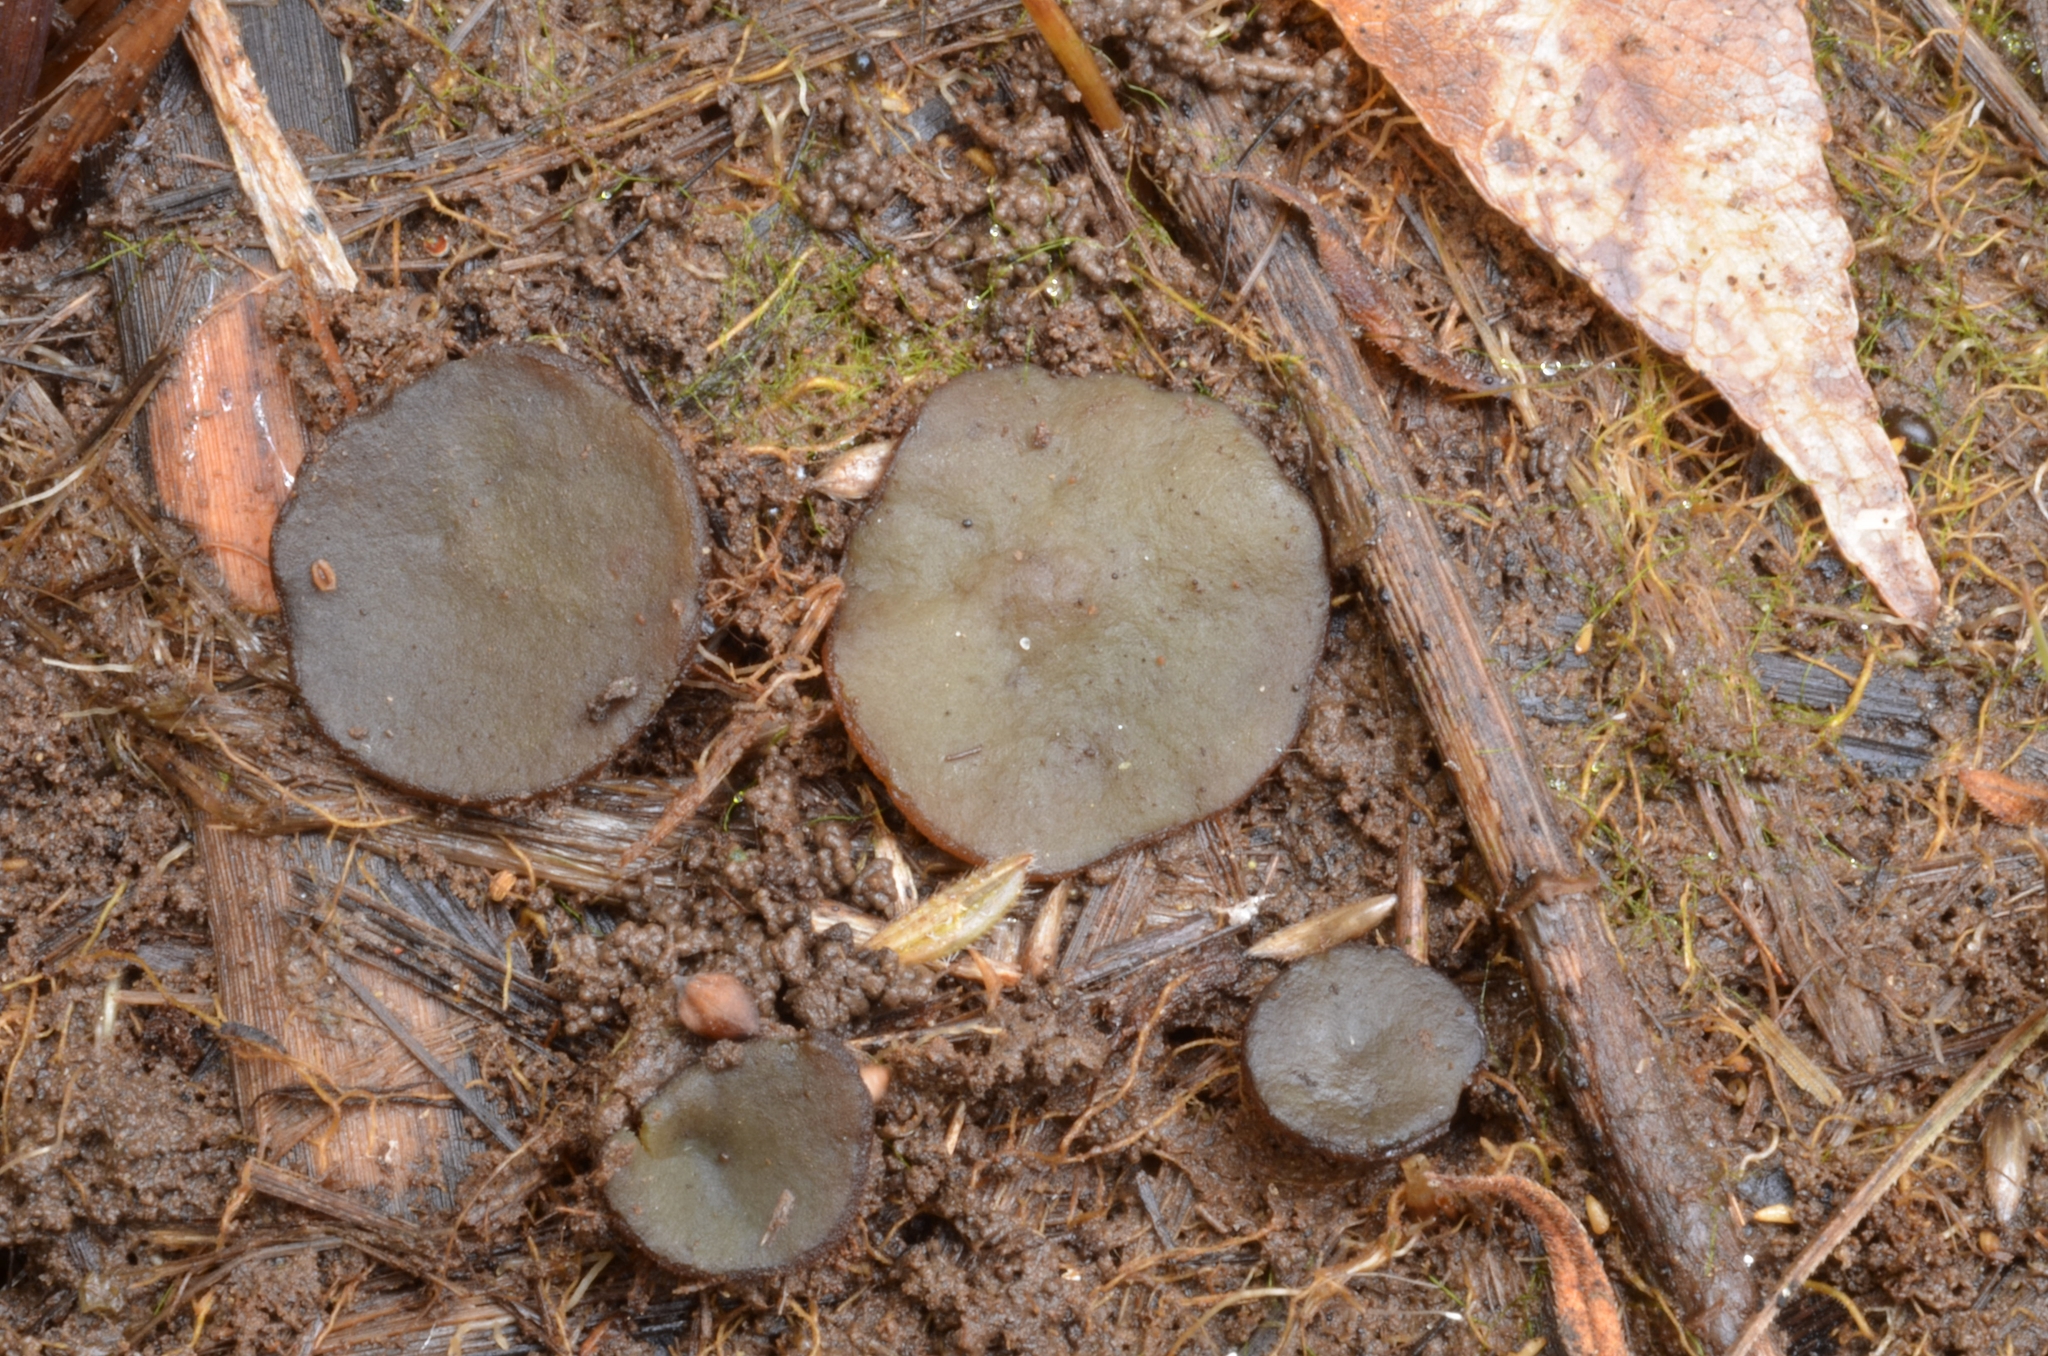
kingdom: Fungi
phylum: Ascomycota
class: Pezizomycetes
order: Pezizales
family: Pezizaceae
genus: Legaliana
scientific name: Legaliana limnaea
